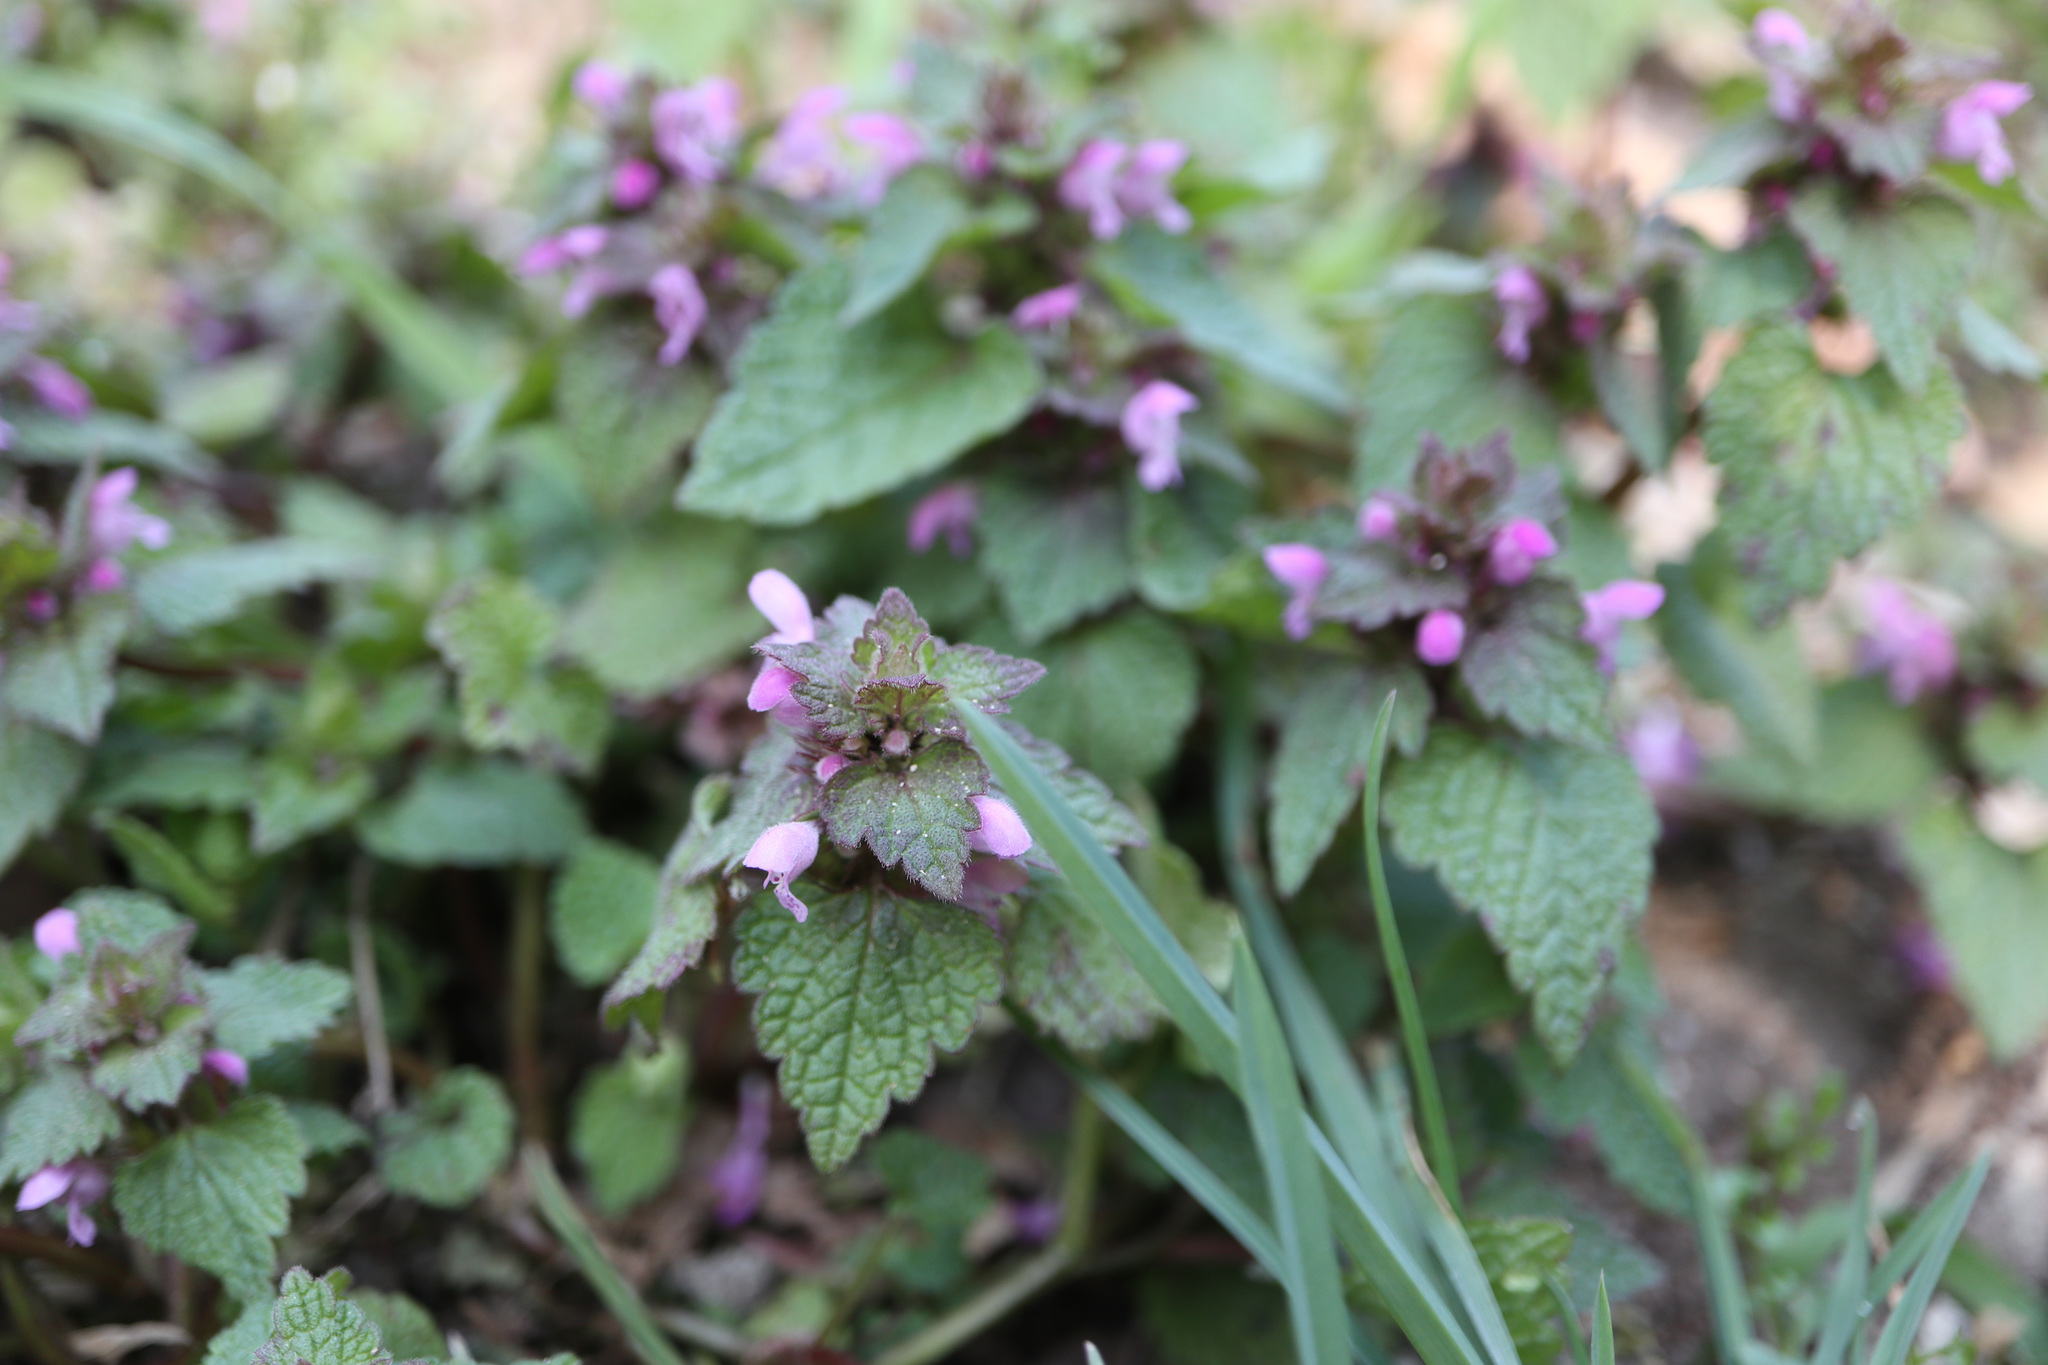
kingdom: Plantae
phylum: Tracheophyta
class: Magnoliopsida
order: Lamiales
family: Lamiaceae
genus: Lamium
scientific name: Lamium purpureum
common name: Red dead-nettle
